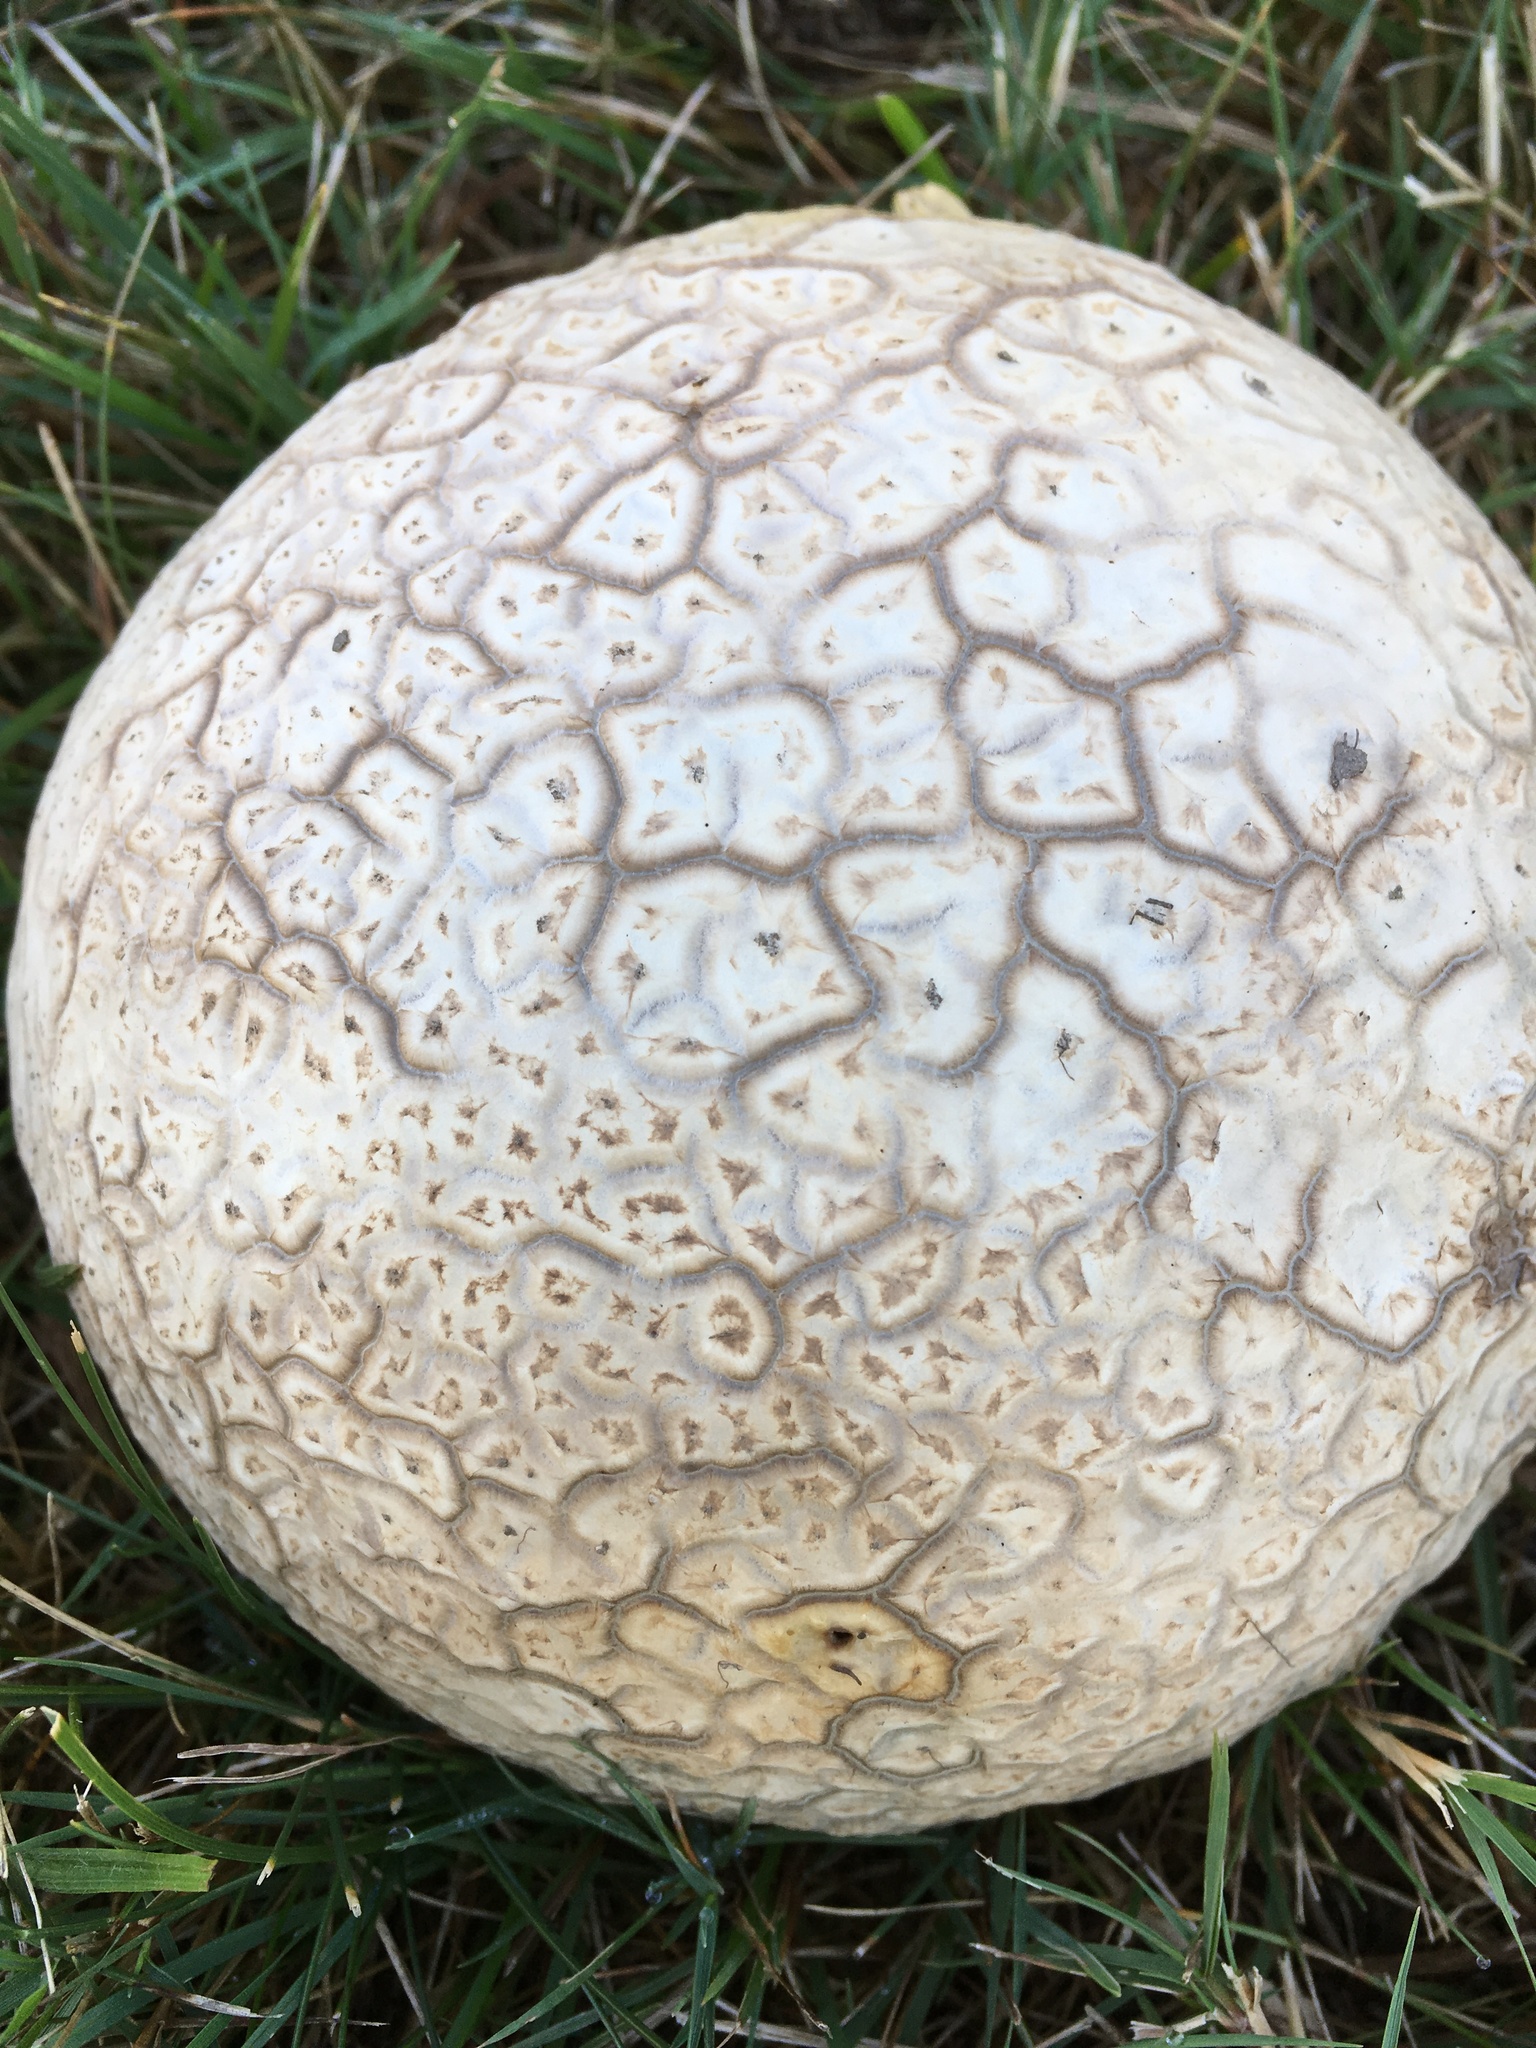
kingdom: Fungi
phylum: Basidiomycota
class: Agaricomycetes
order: Agaricales
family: Lycoperdaceae
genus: Calvatia
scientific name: Calvatia craniiformis
